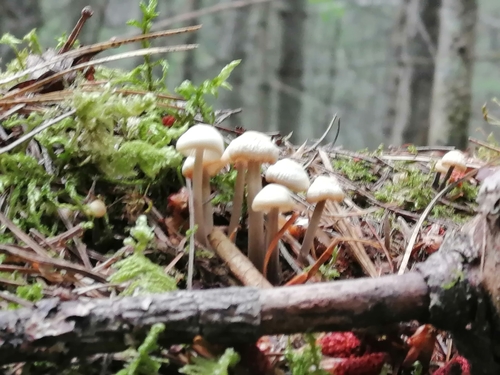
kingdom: Fungi
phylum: Basidiomycota
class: Agaricomycetes
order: Agaricales
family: Mycenaceae
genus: Mycena
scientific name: Mycena
